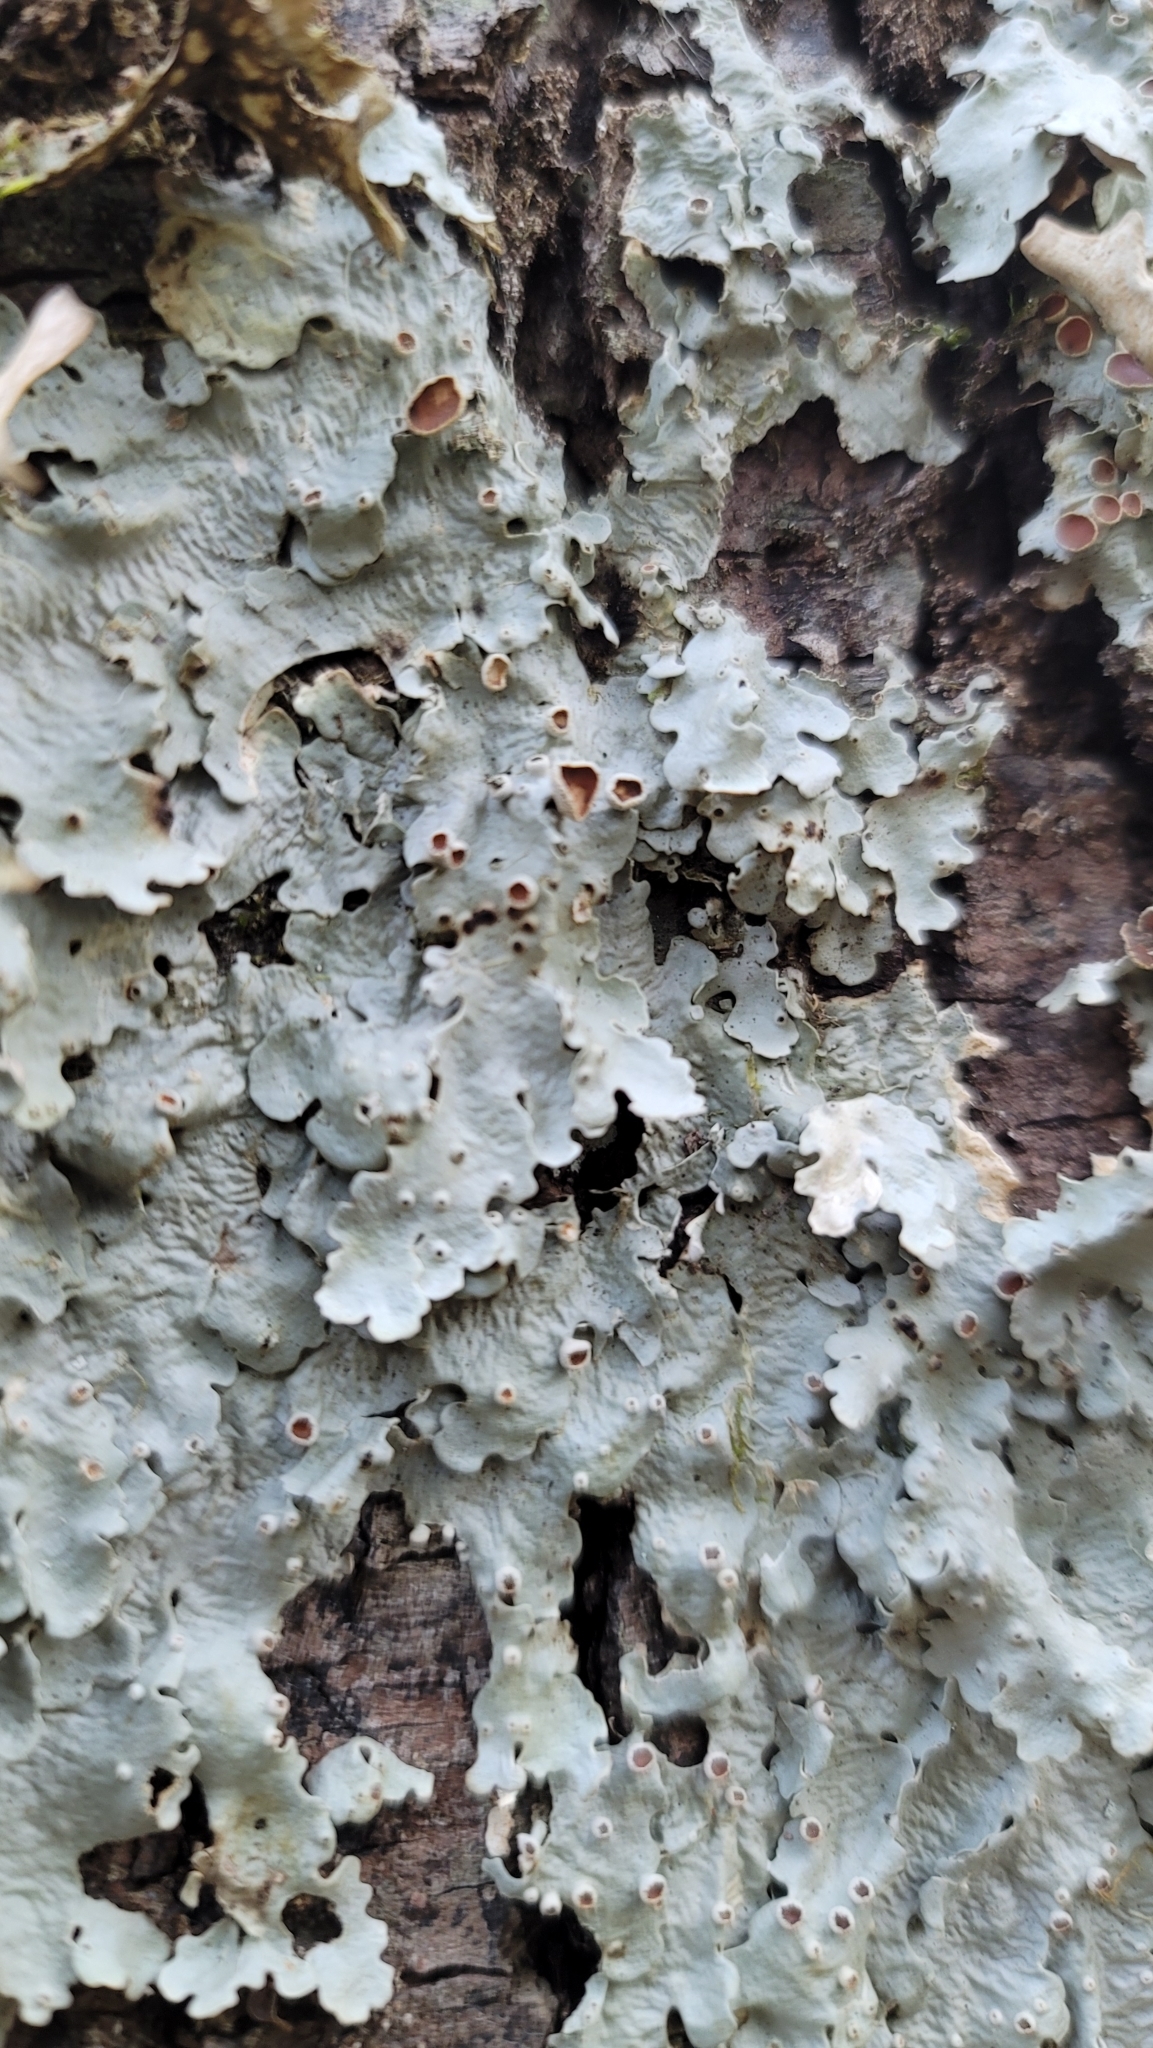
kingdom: Fungi
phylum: Ascomycota
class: Lecanoromycetes
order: Peltigerales
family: Lobariaceae
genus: Ricasolia
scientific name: Ricasolia quercizans
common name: Smooth lungwort
